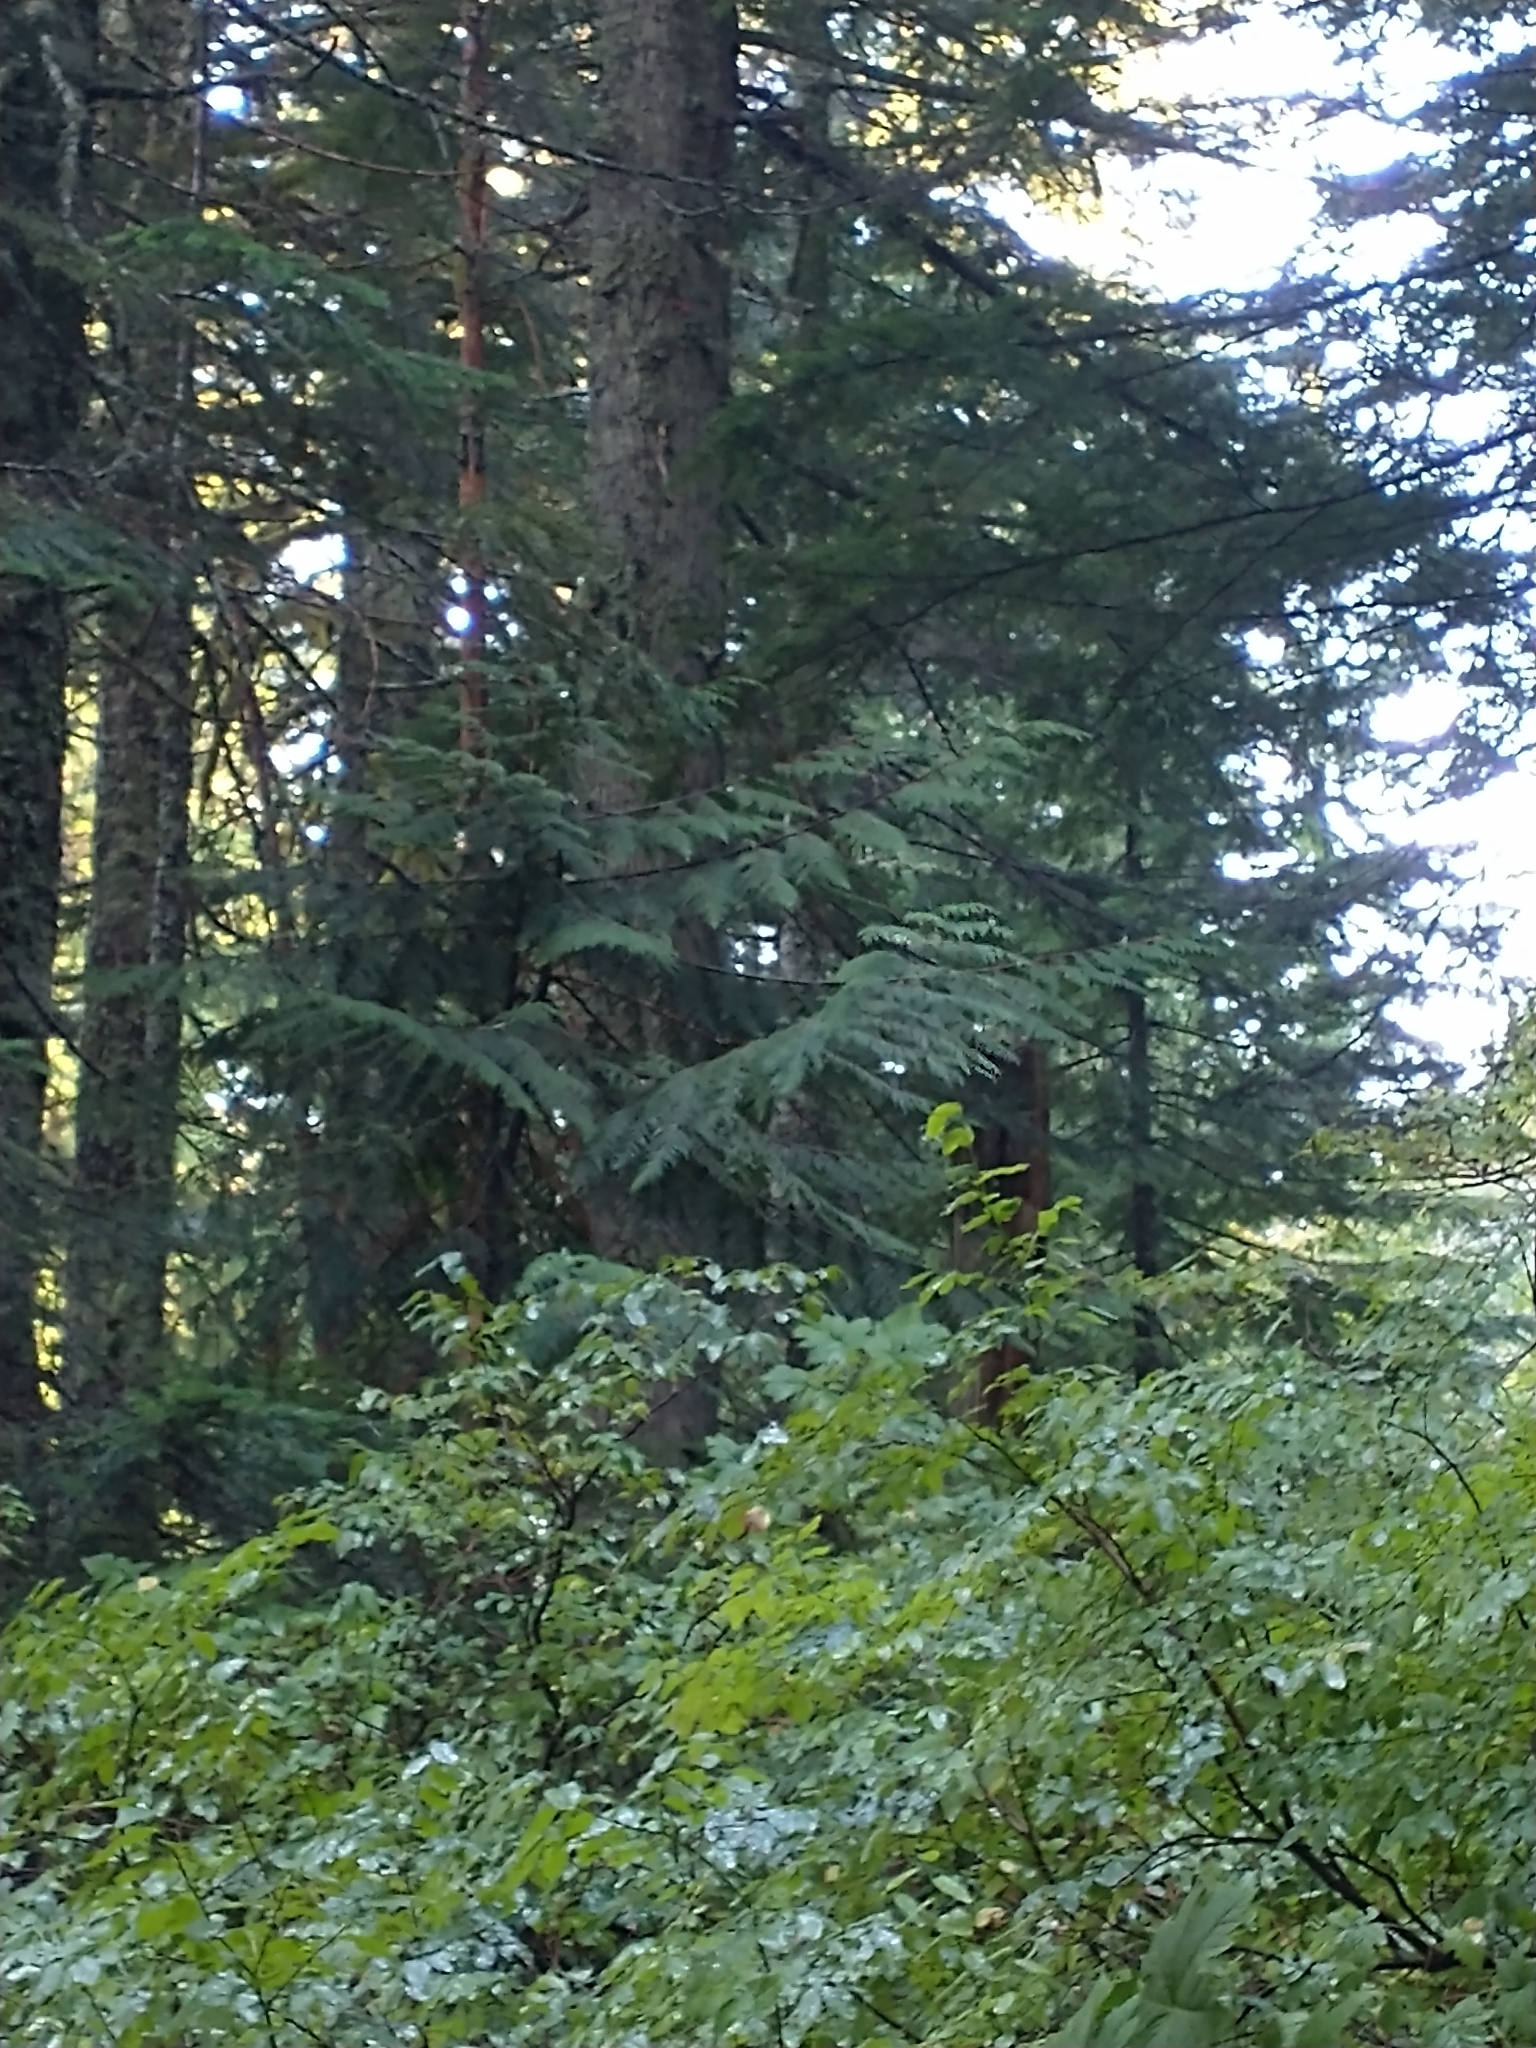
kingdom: Plantae
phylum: Tracheophyta
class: Pinopsida
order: Pinales
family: Cupressaceae
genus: Thuja
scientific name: Thuja plicata
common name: Western red-cedar
